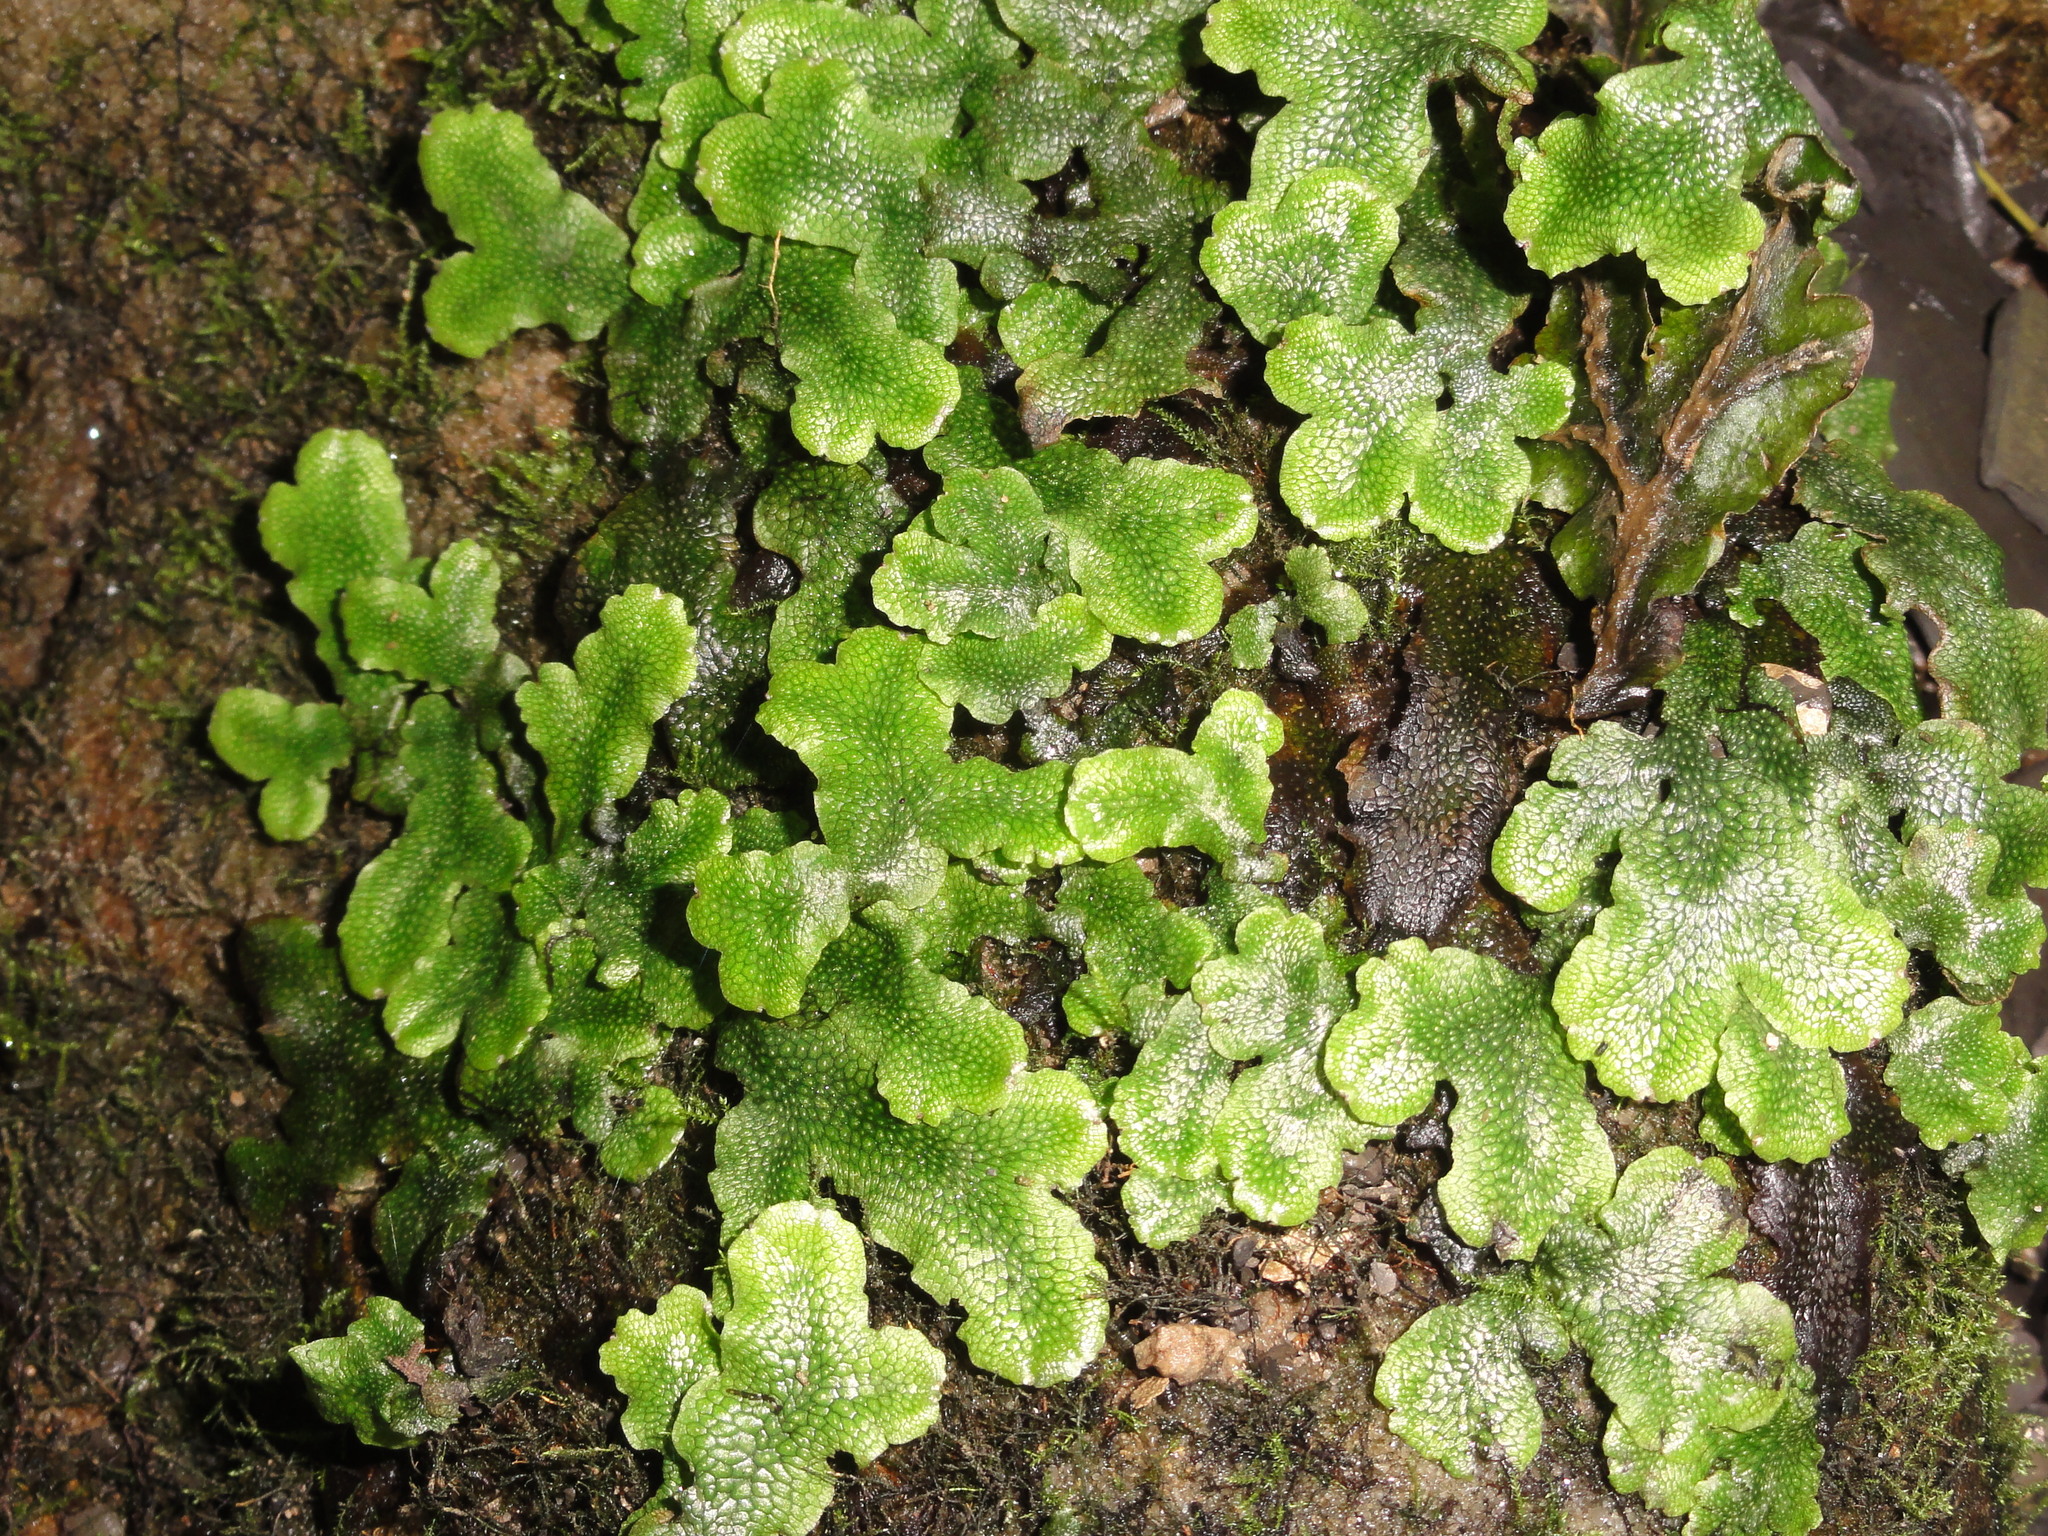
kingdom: Plantae
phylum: Marchantiophyta
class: Marchantiopsida
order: Marchantiales
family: Conocephalaceae
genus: Conocephalum
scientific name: Conocephalum salebrosum
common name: Cat-tongue liverwort
